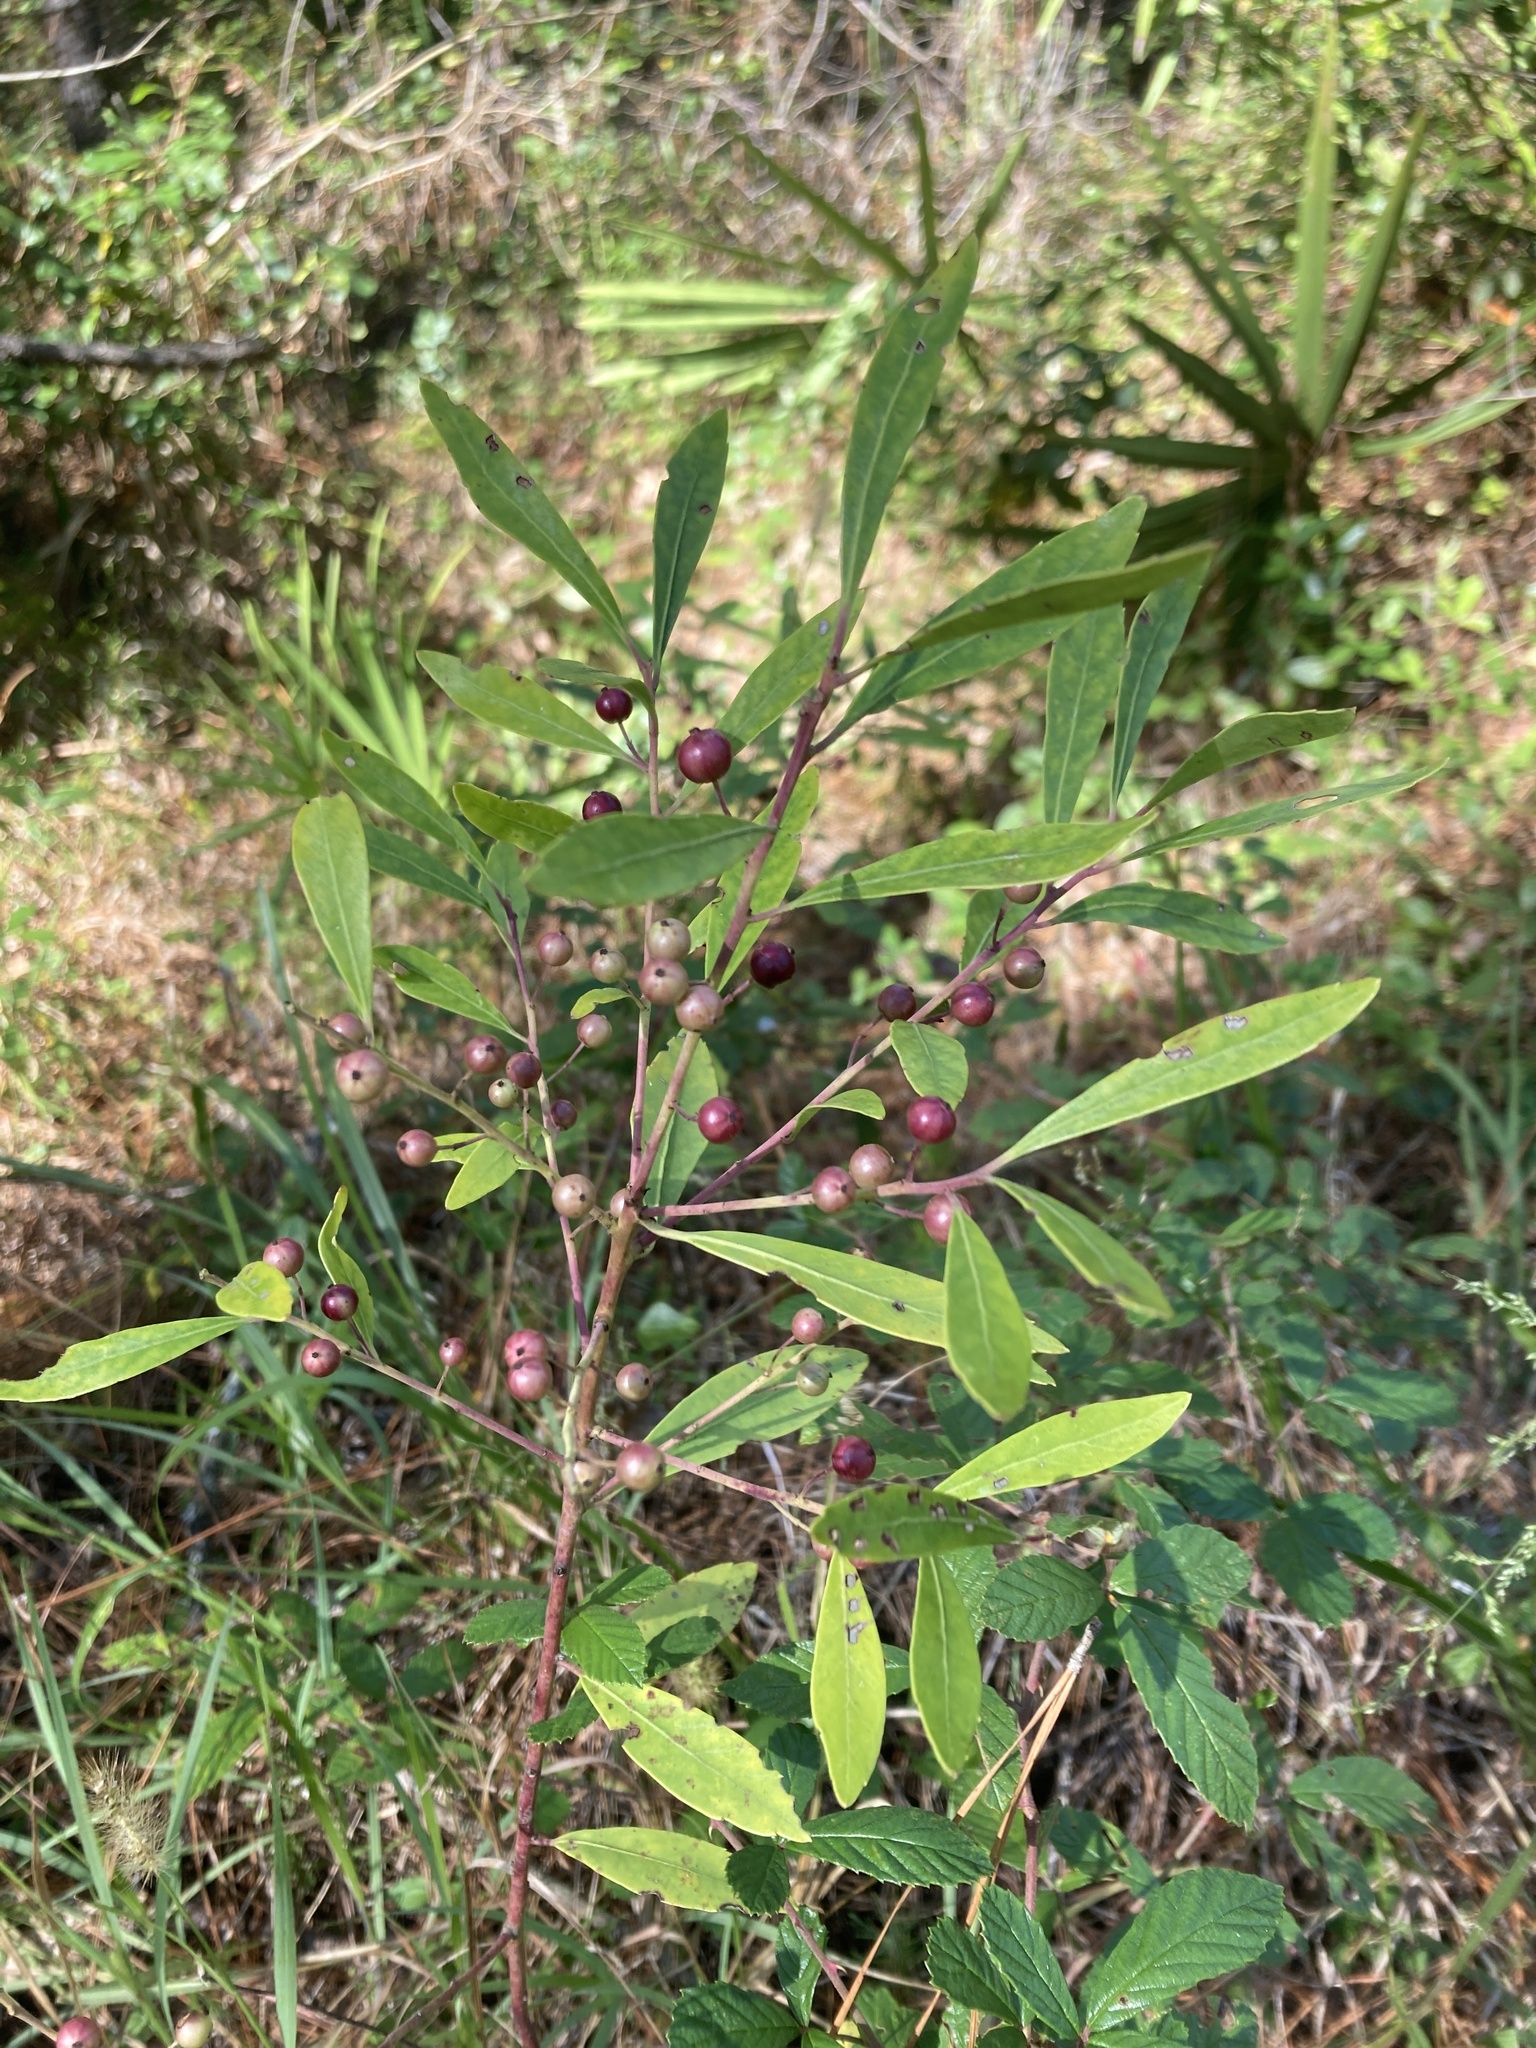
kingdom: Plantae
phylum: Tracheophyta
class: Magnoliopsida
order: Aquifoliales
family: Aquifoliaceae
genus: Ilex
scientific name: Ilex glabra
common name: Bitter gallberry
